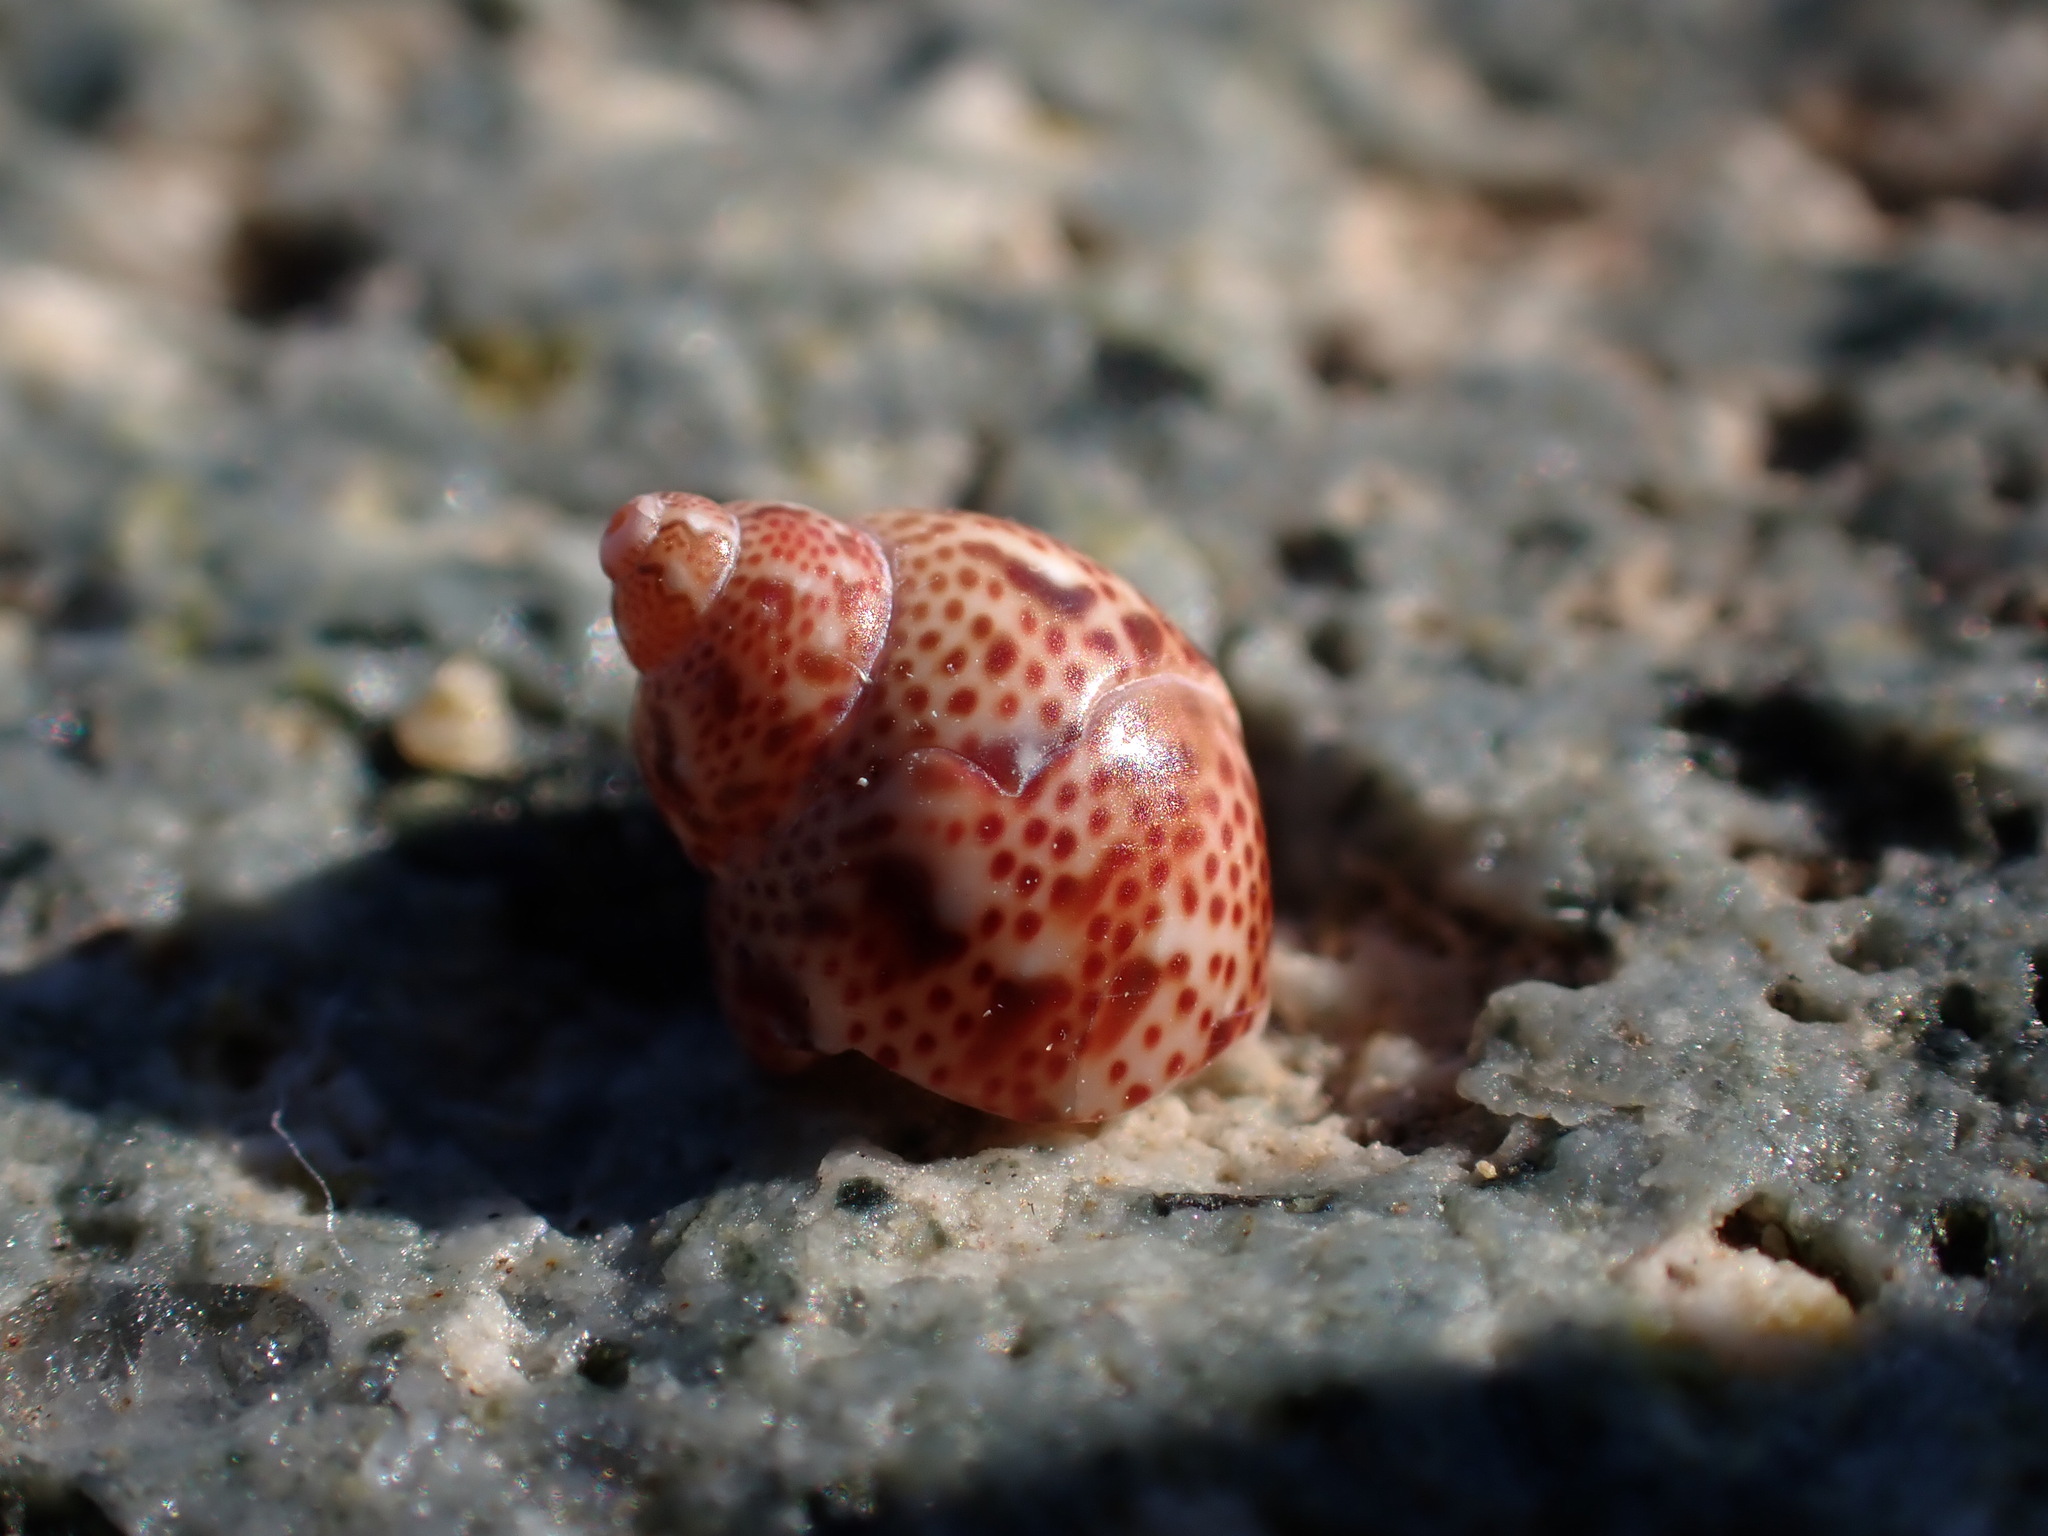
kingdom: Animalia
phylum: Mollusca
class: Gastropoda
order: Trochida
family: Phasianellidae
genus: Tricolia
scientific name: Tricolia pullus
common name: Pheasant shell
